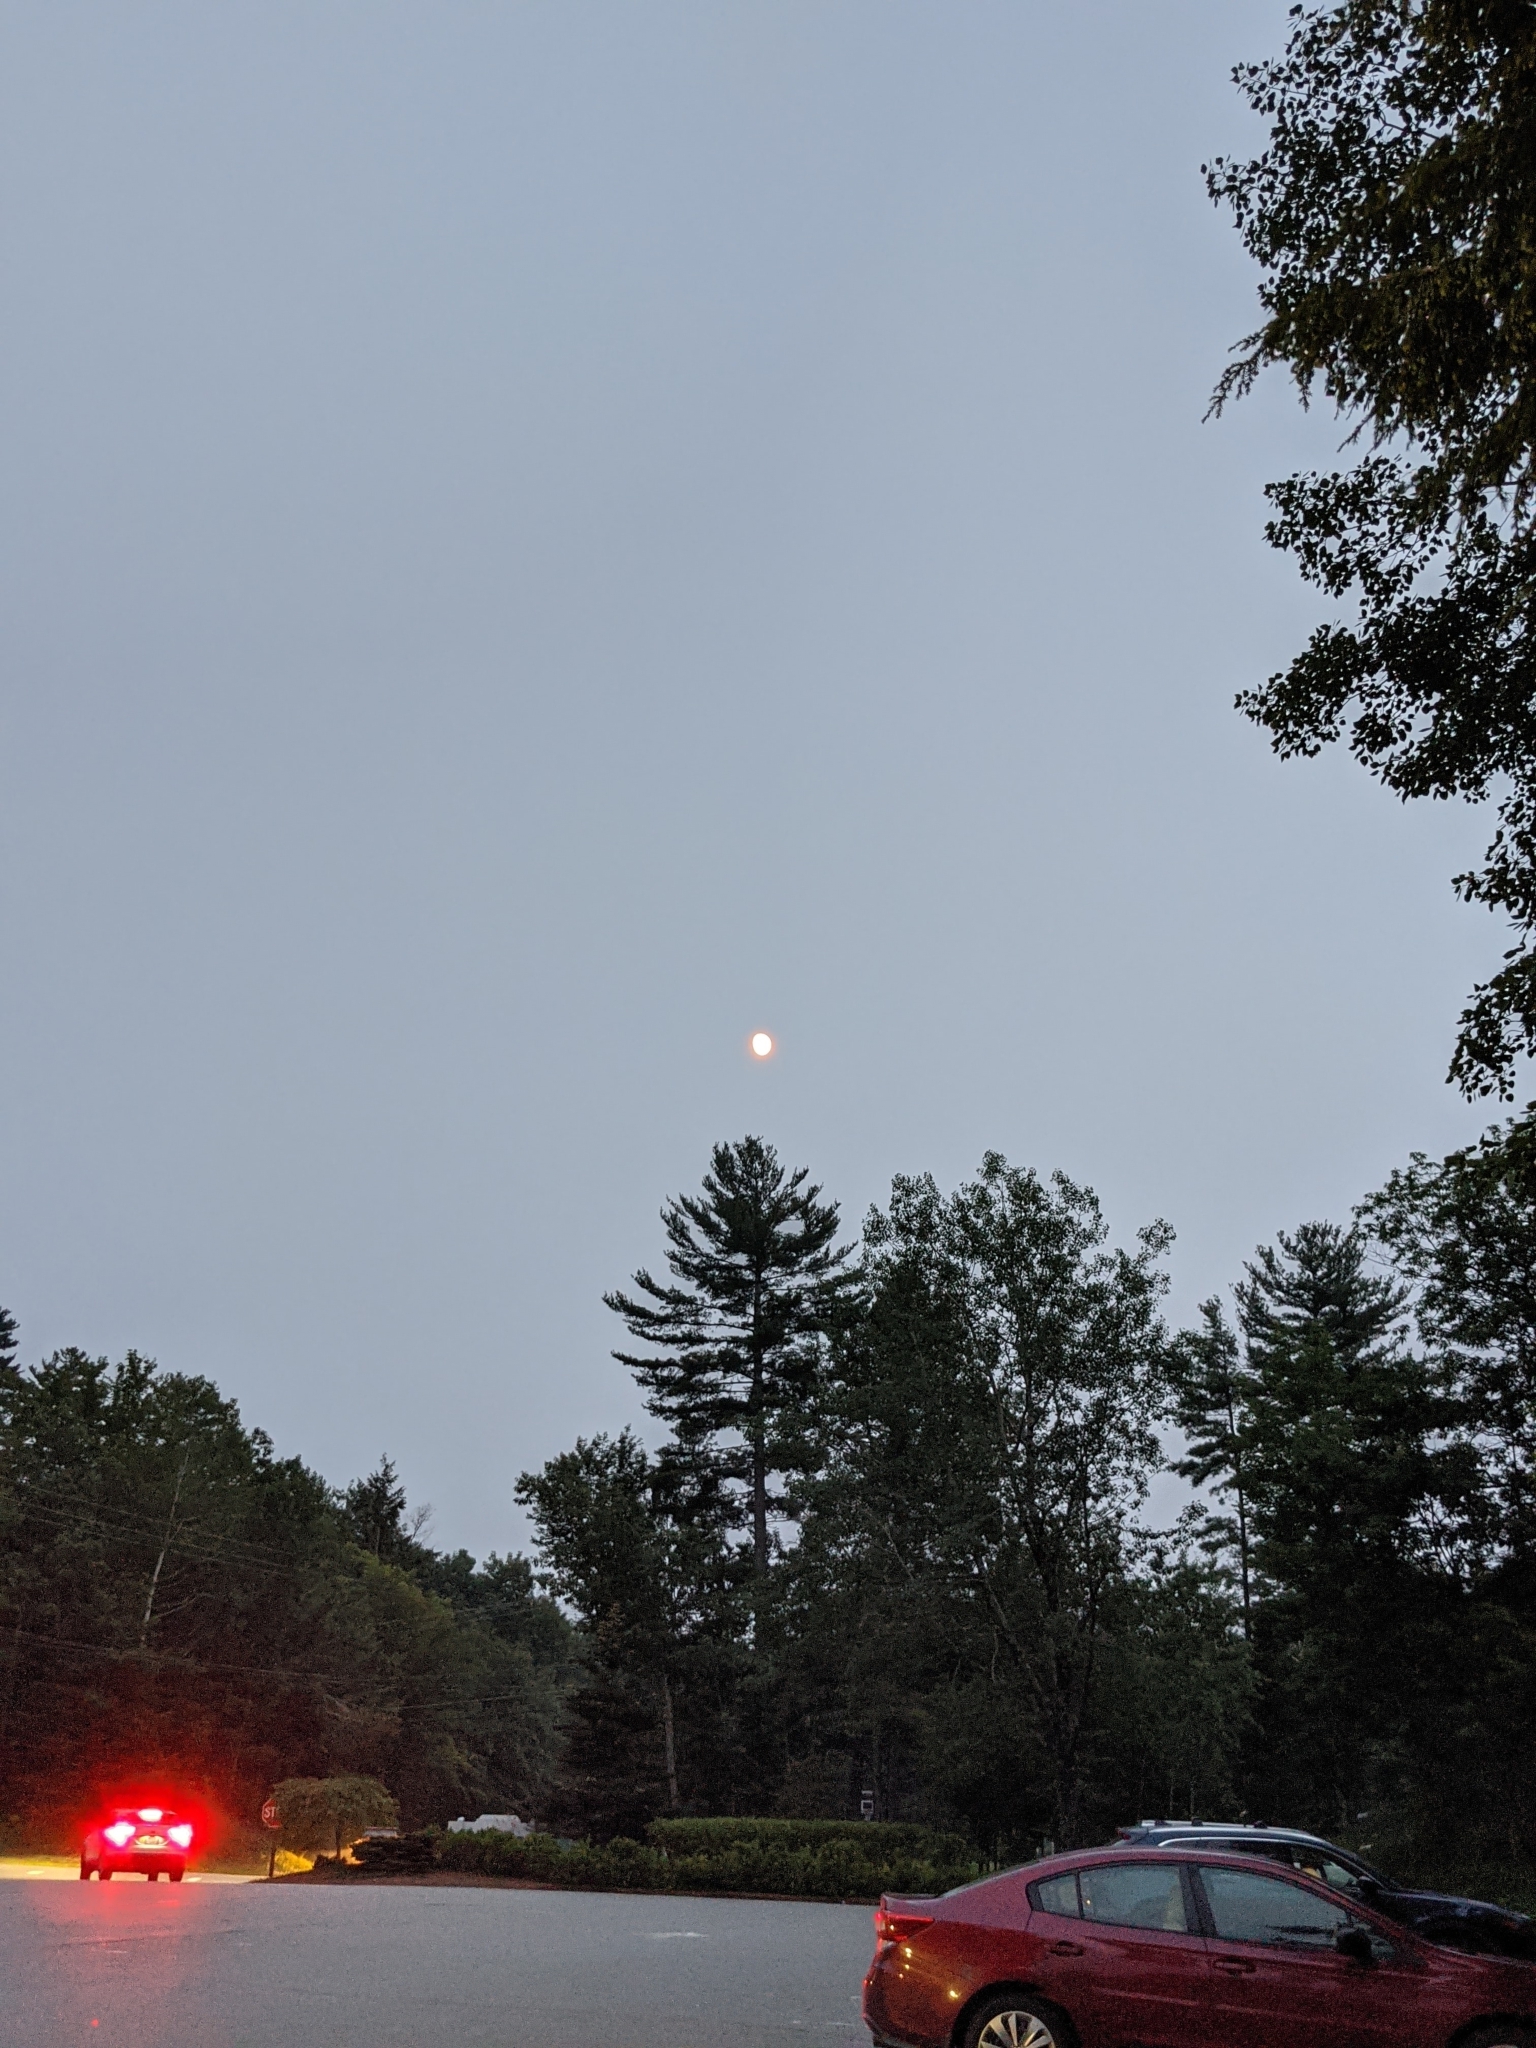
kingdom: Plantae
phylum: Tracheophyta
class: Pinopsida
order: Pinales
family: Pinaceae
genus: Pinus
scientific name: Pinus strobus
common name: Weymouth pine
